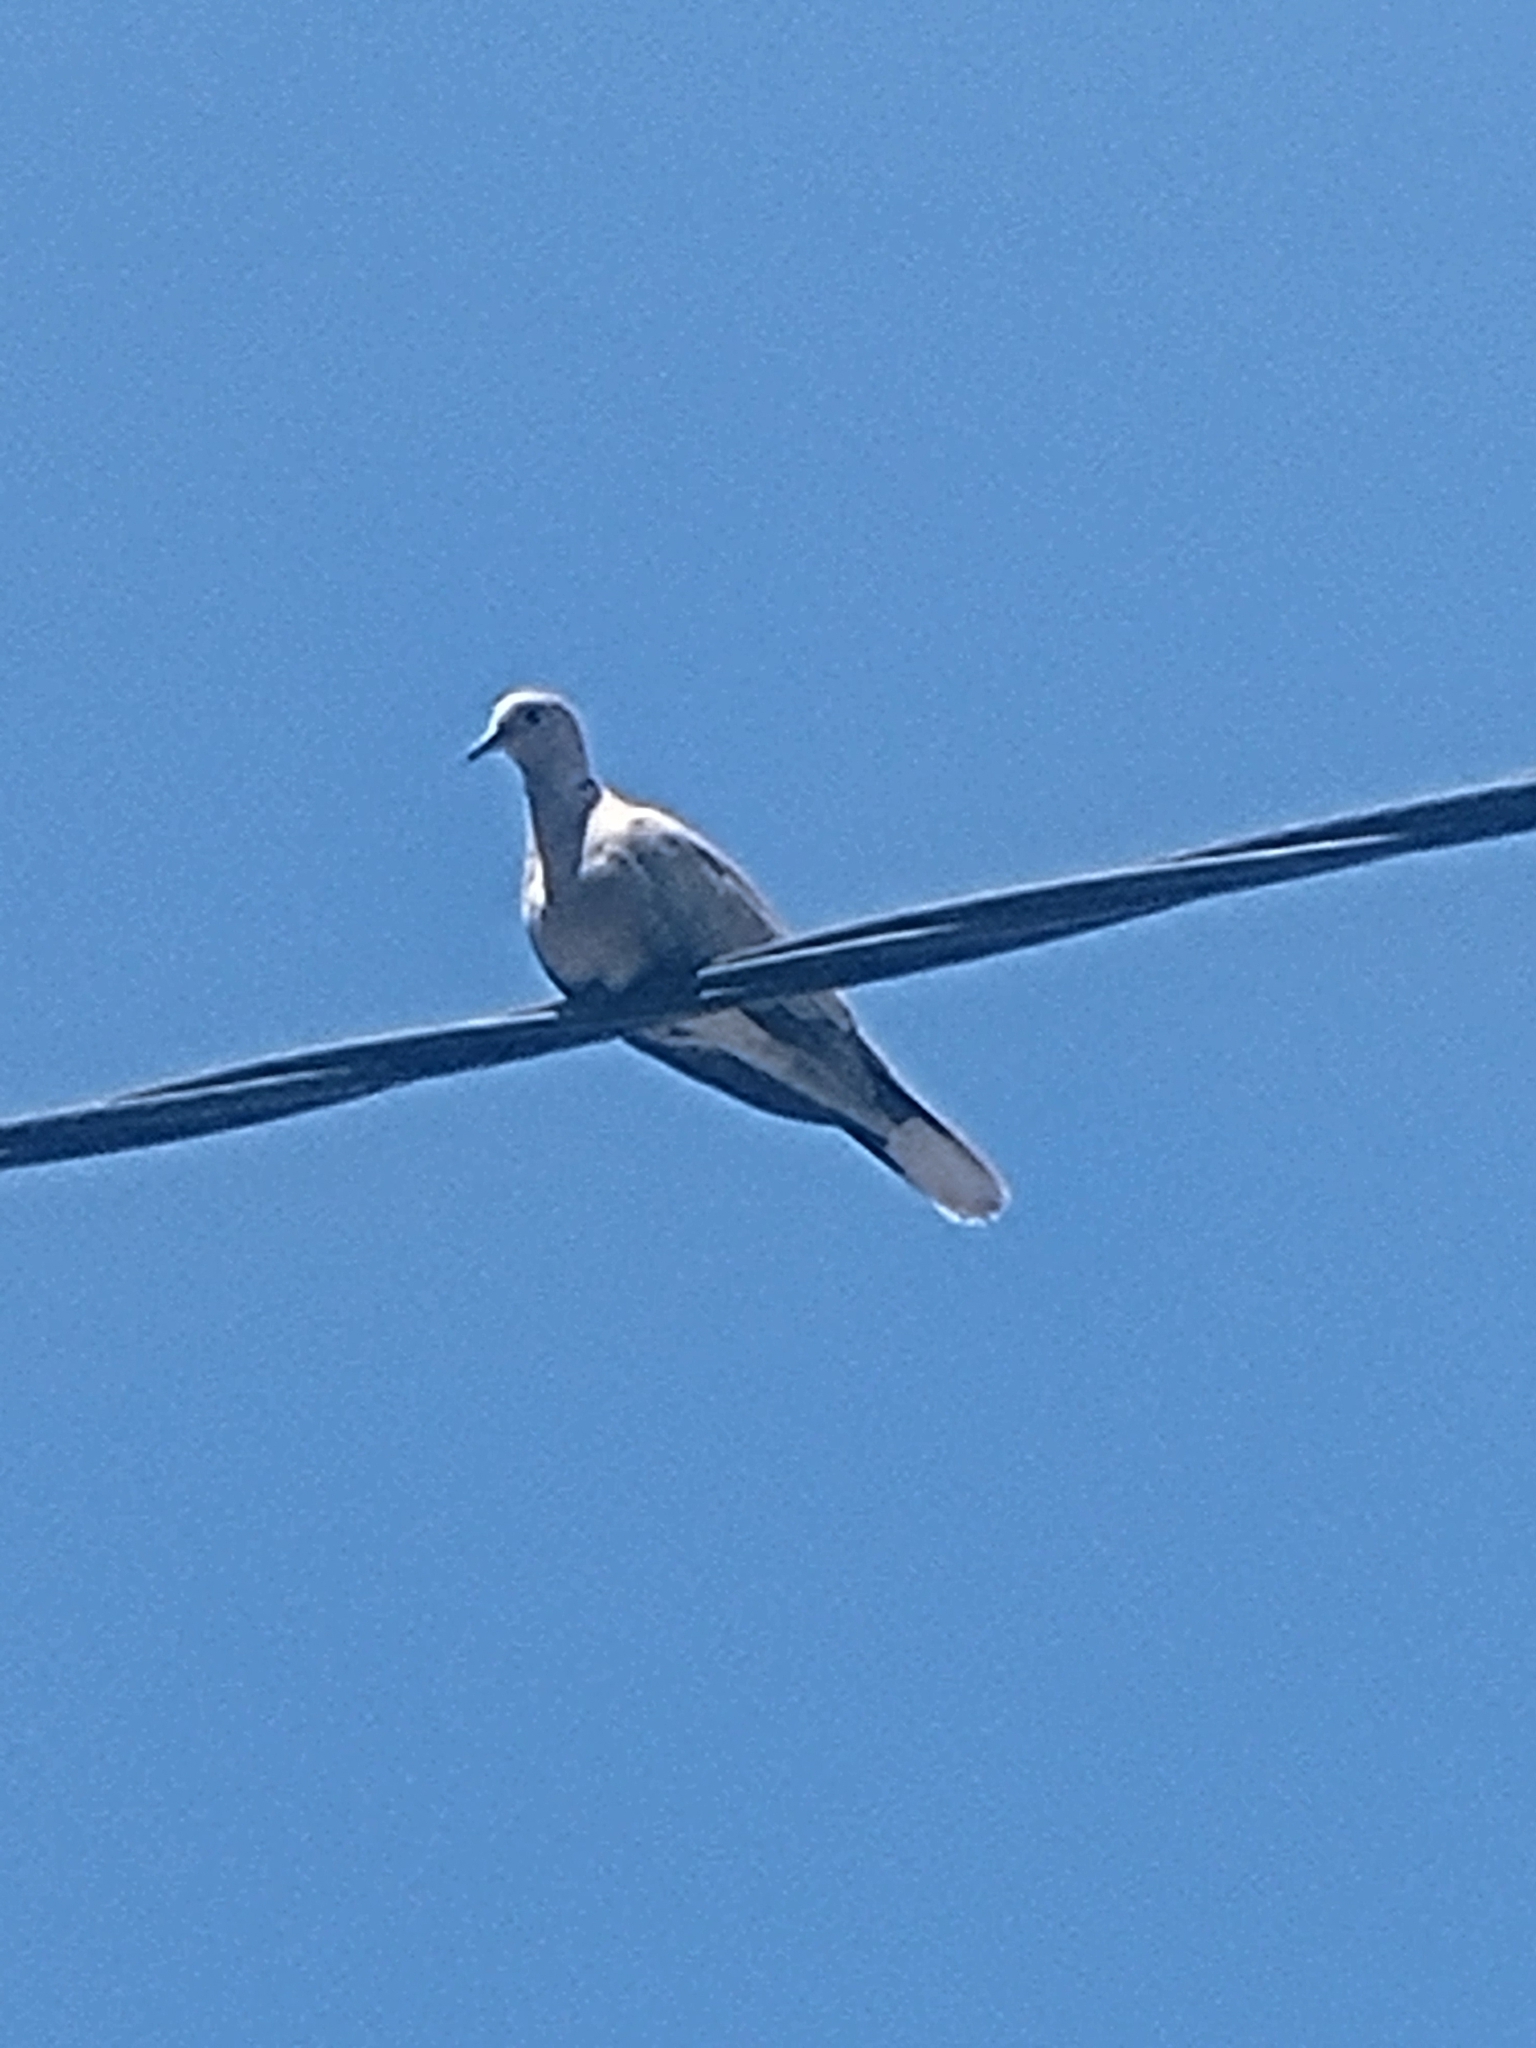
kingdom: Animalia
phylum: Chordata
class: Aves
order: Columbiformes
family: Columbidae
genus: Streptopelia
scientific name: Streptopelia decaocto
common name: Eurasian collared dove
